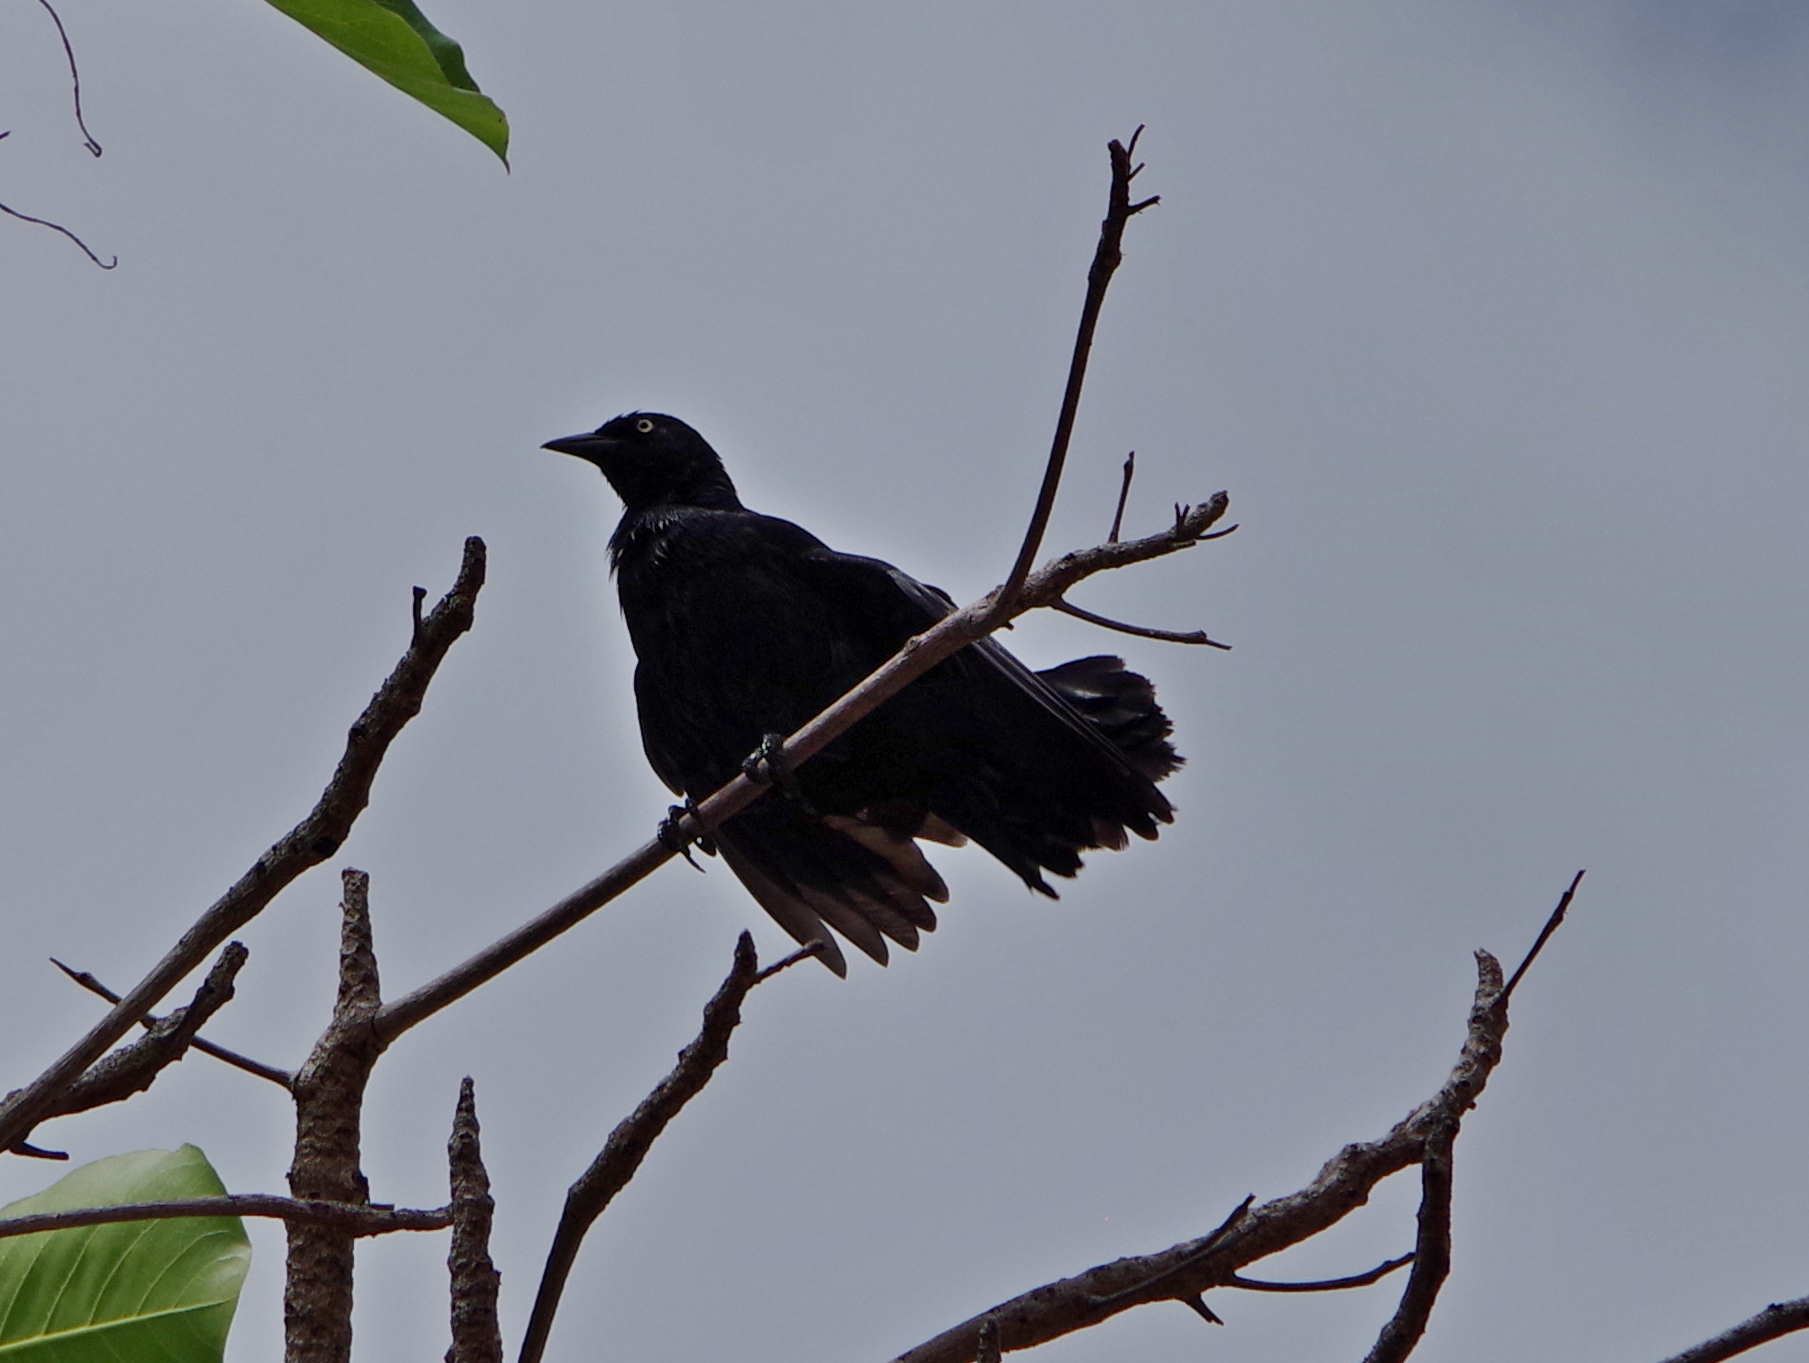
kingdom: Animalia
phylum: Chordata
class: Aves
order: Passeriformes
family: Icteridae
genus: Quiscalus
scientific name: Quiscalus niger
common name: Greater antillean grackle
